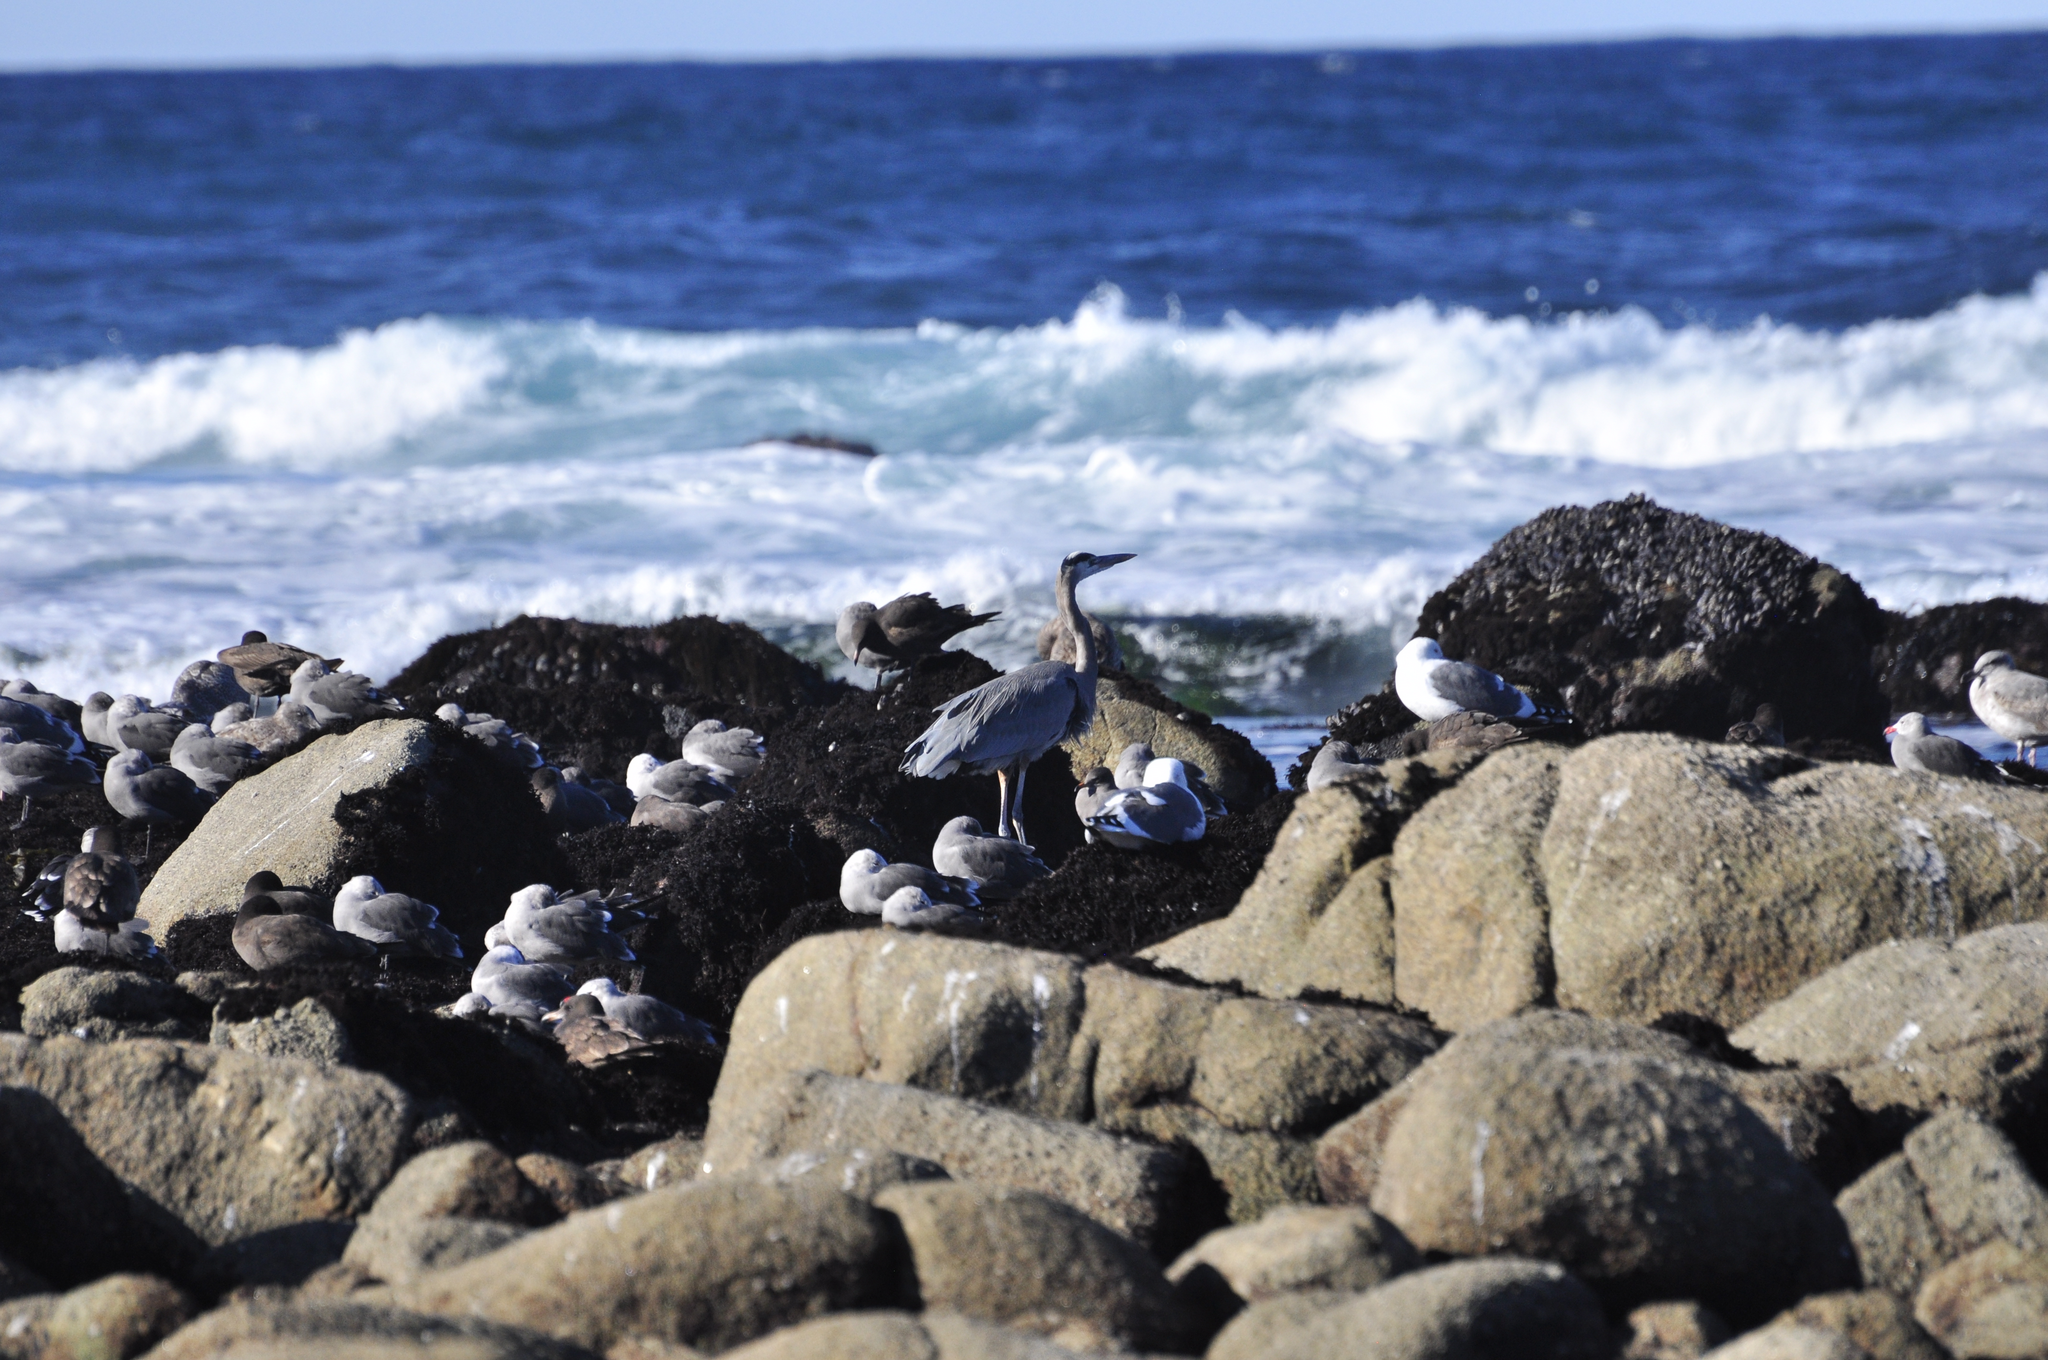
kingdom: Animalia
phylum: Chordata
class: Aves
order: Pelecaniformes
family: Ardeidae
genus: Ardea
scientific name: Ardea herodias
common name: Great blue heron
